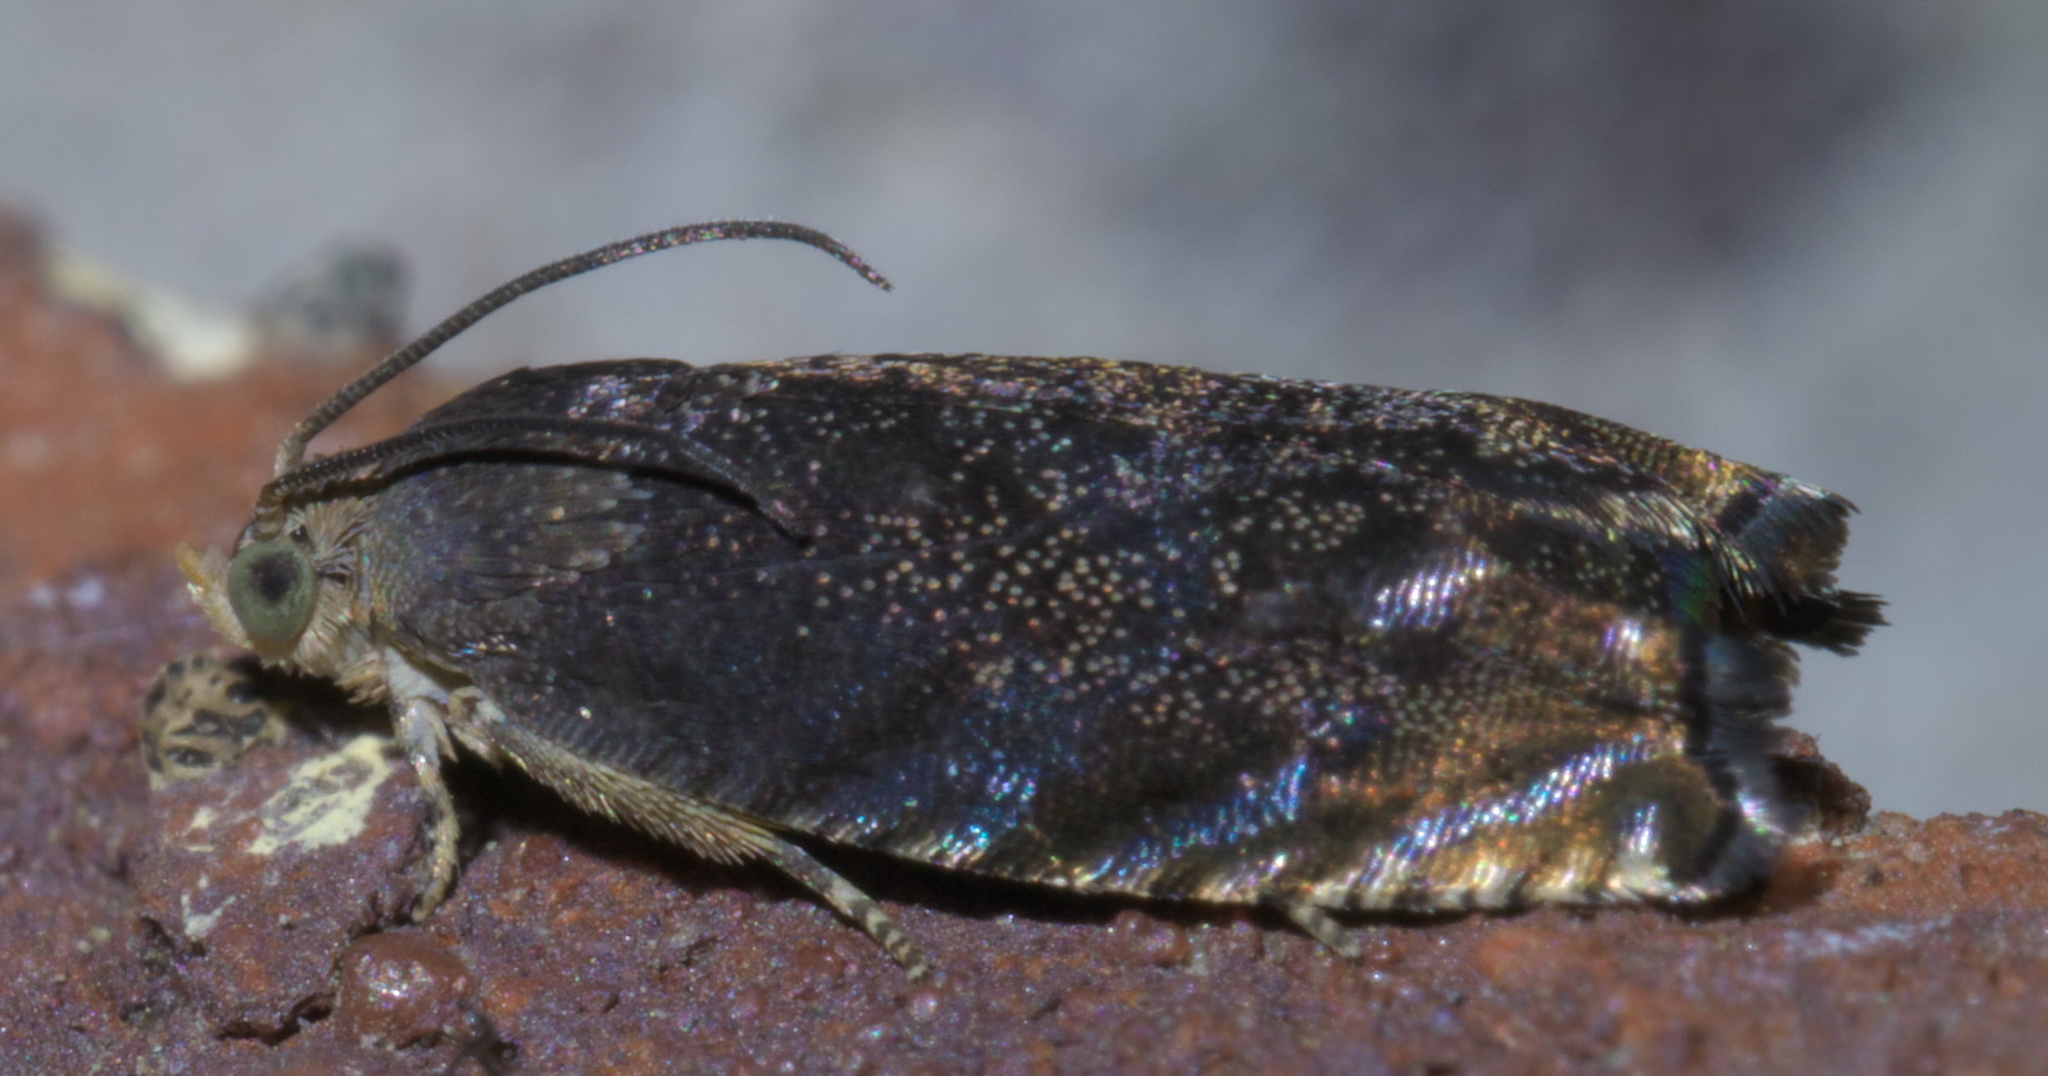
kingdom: Animalia
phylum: Arthropoda
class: Insecta
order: Lepidoptera
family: Tortricidae
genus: Cydia
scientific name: Cydia caryana
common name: Hickory shuckworm moth
